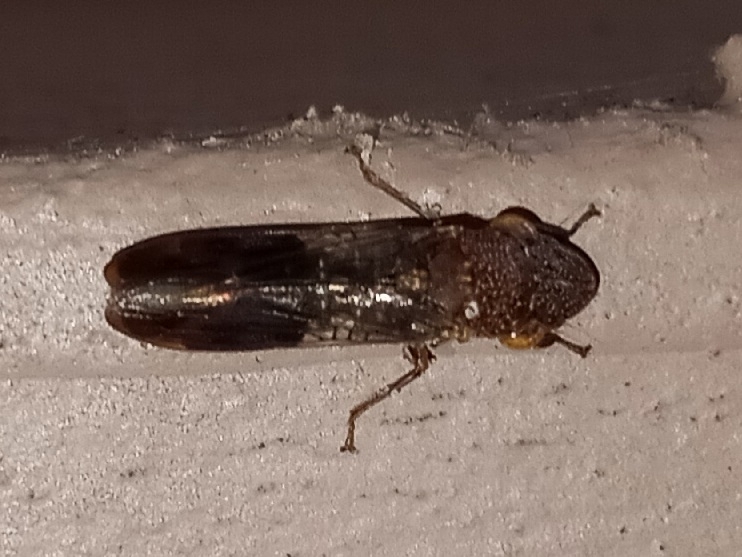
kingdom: Animalia
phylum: Arthropoda
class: Insecta
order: Hemiptera
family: Cicadellidae
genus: Homalodisca
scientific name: Homalodisca vitripennis
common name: Glassy-winged sharpshooter
